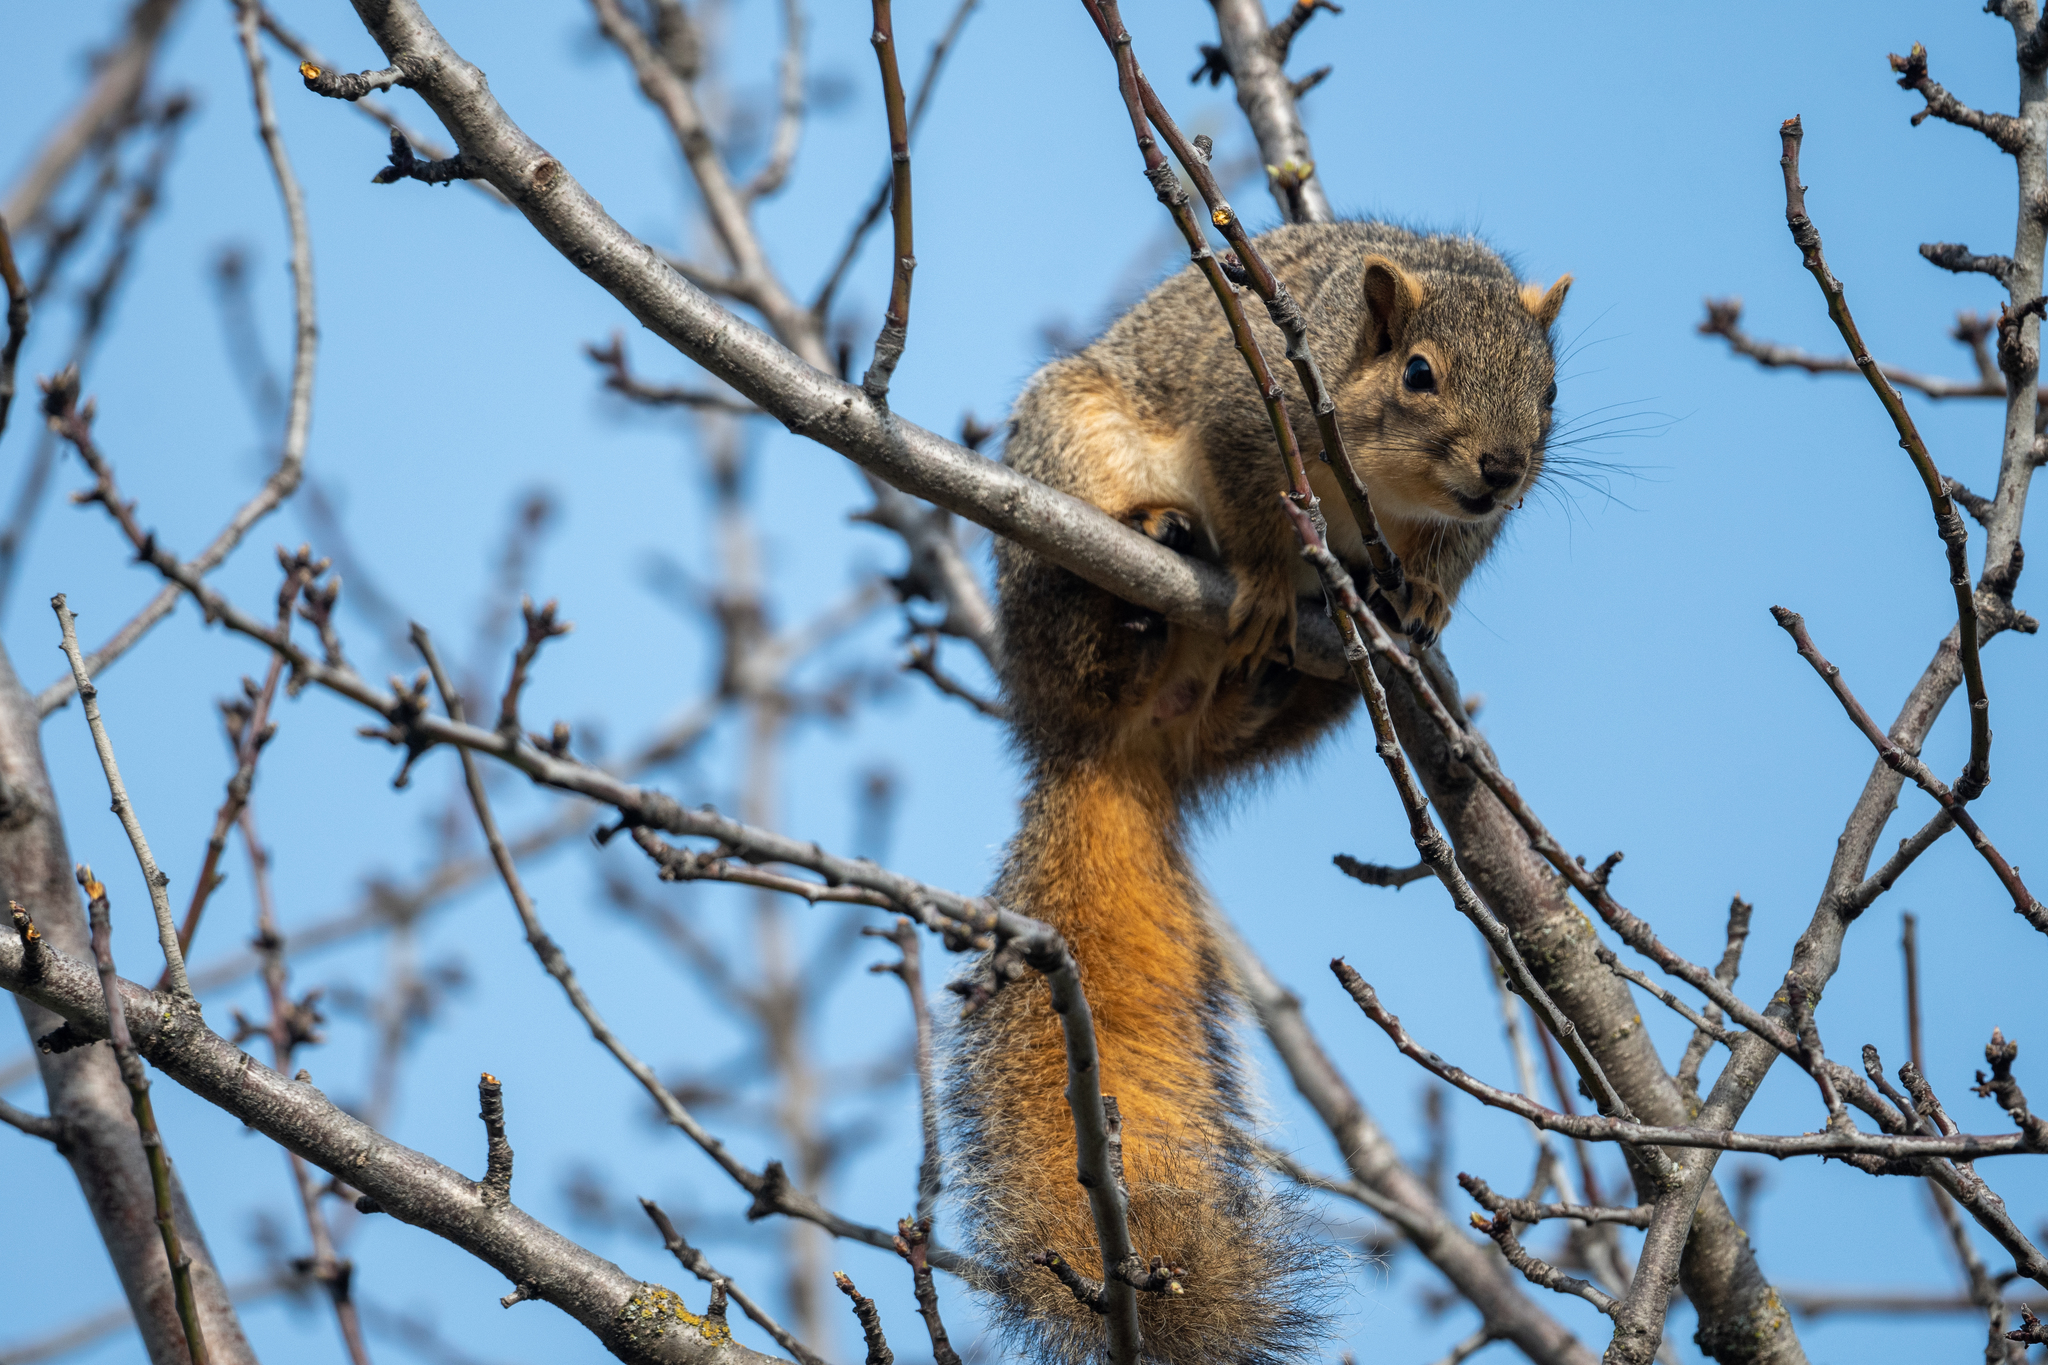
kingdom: Animalia
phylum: Chordata
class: Mammalia
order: Rodentia
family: Sciuridae
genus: Sciurus
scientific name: Sciurus niger
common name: Fox squirrel
